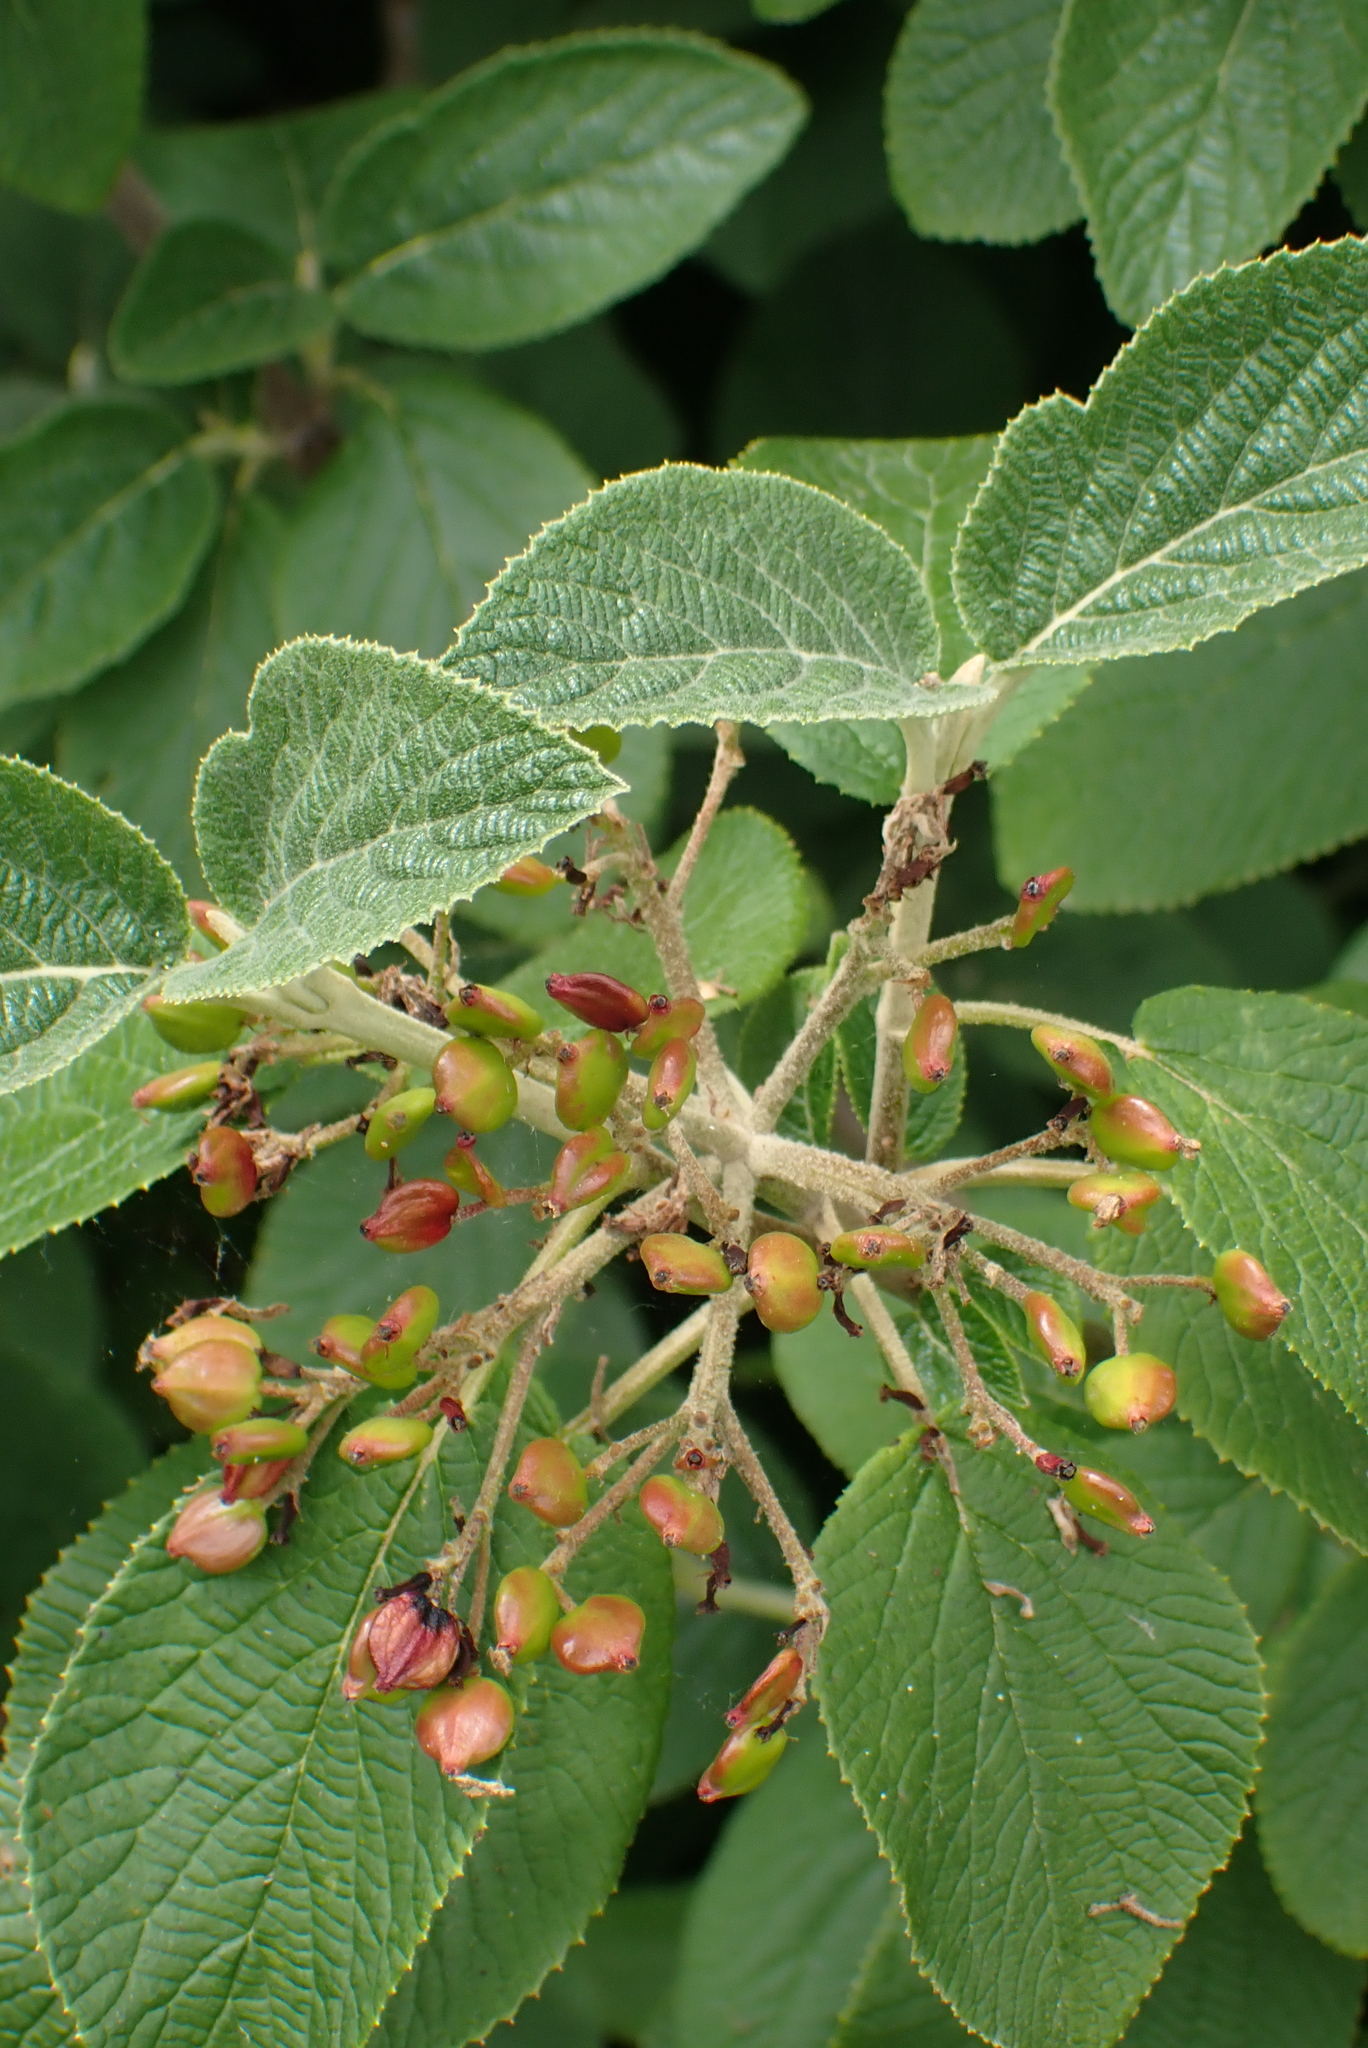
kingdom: Plantae
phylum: Tracheophyta
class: Magnoliopsida
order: Dipsacales
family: Viburnaceae
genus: Viburnum
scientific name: Viburnum lantana
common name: Wayfaring tree
